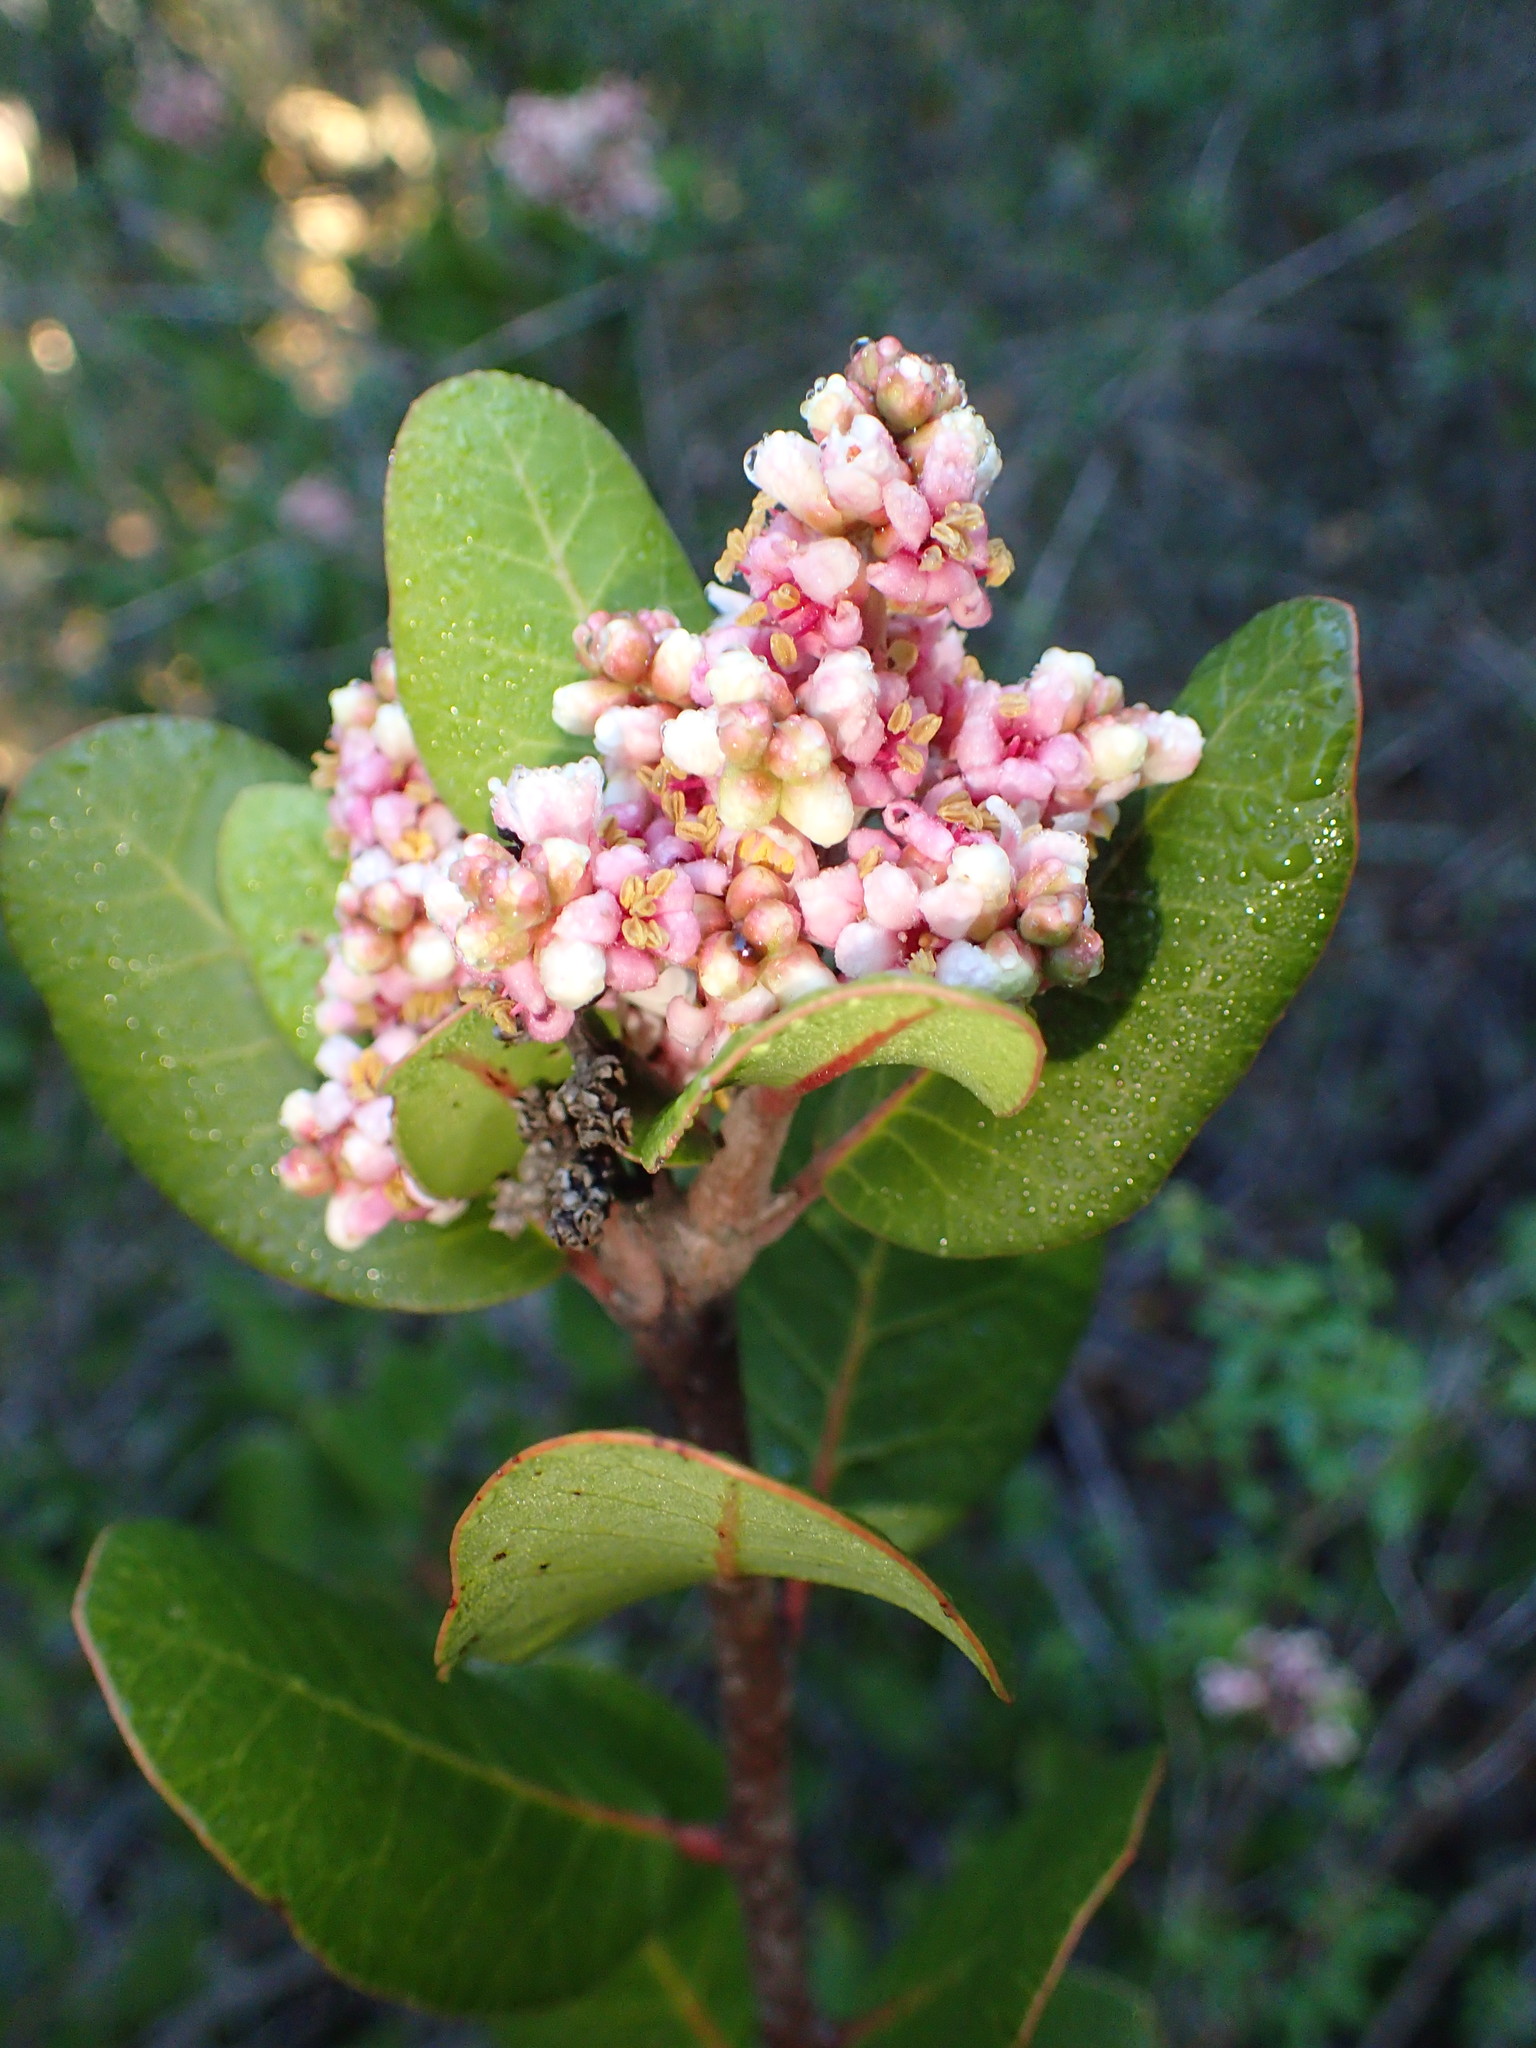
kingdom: Plantae
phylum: Tracheophyta
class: Magnoliopsida
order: Sapindales
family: Anacardiaceae
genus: Rhus
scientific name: Rhus integrifolia
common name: Lemonade sumac
